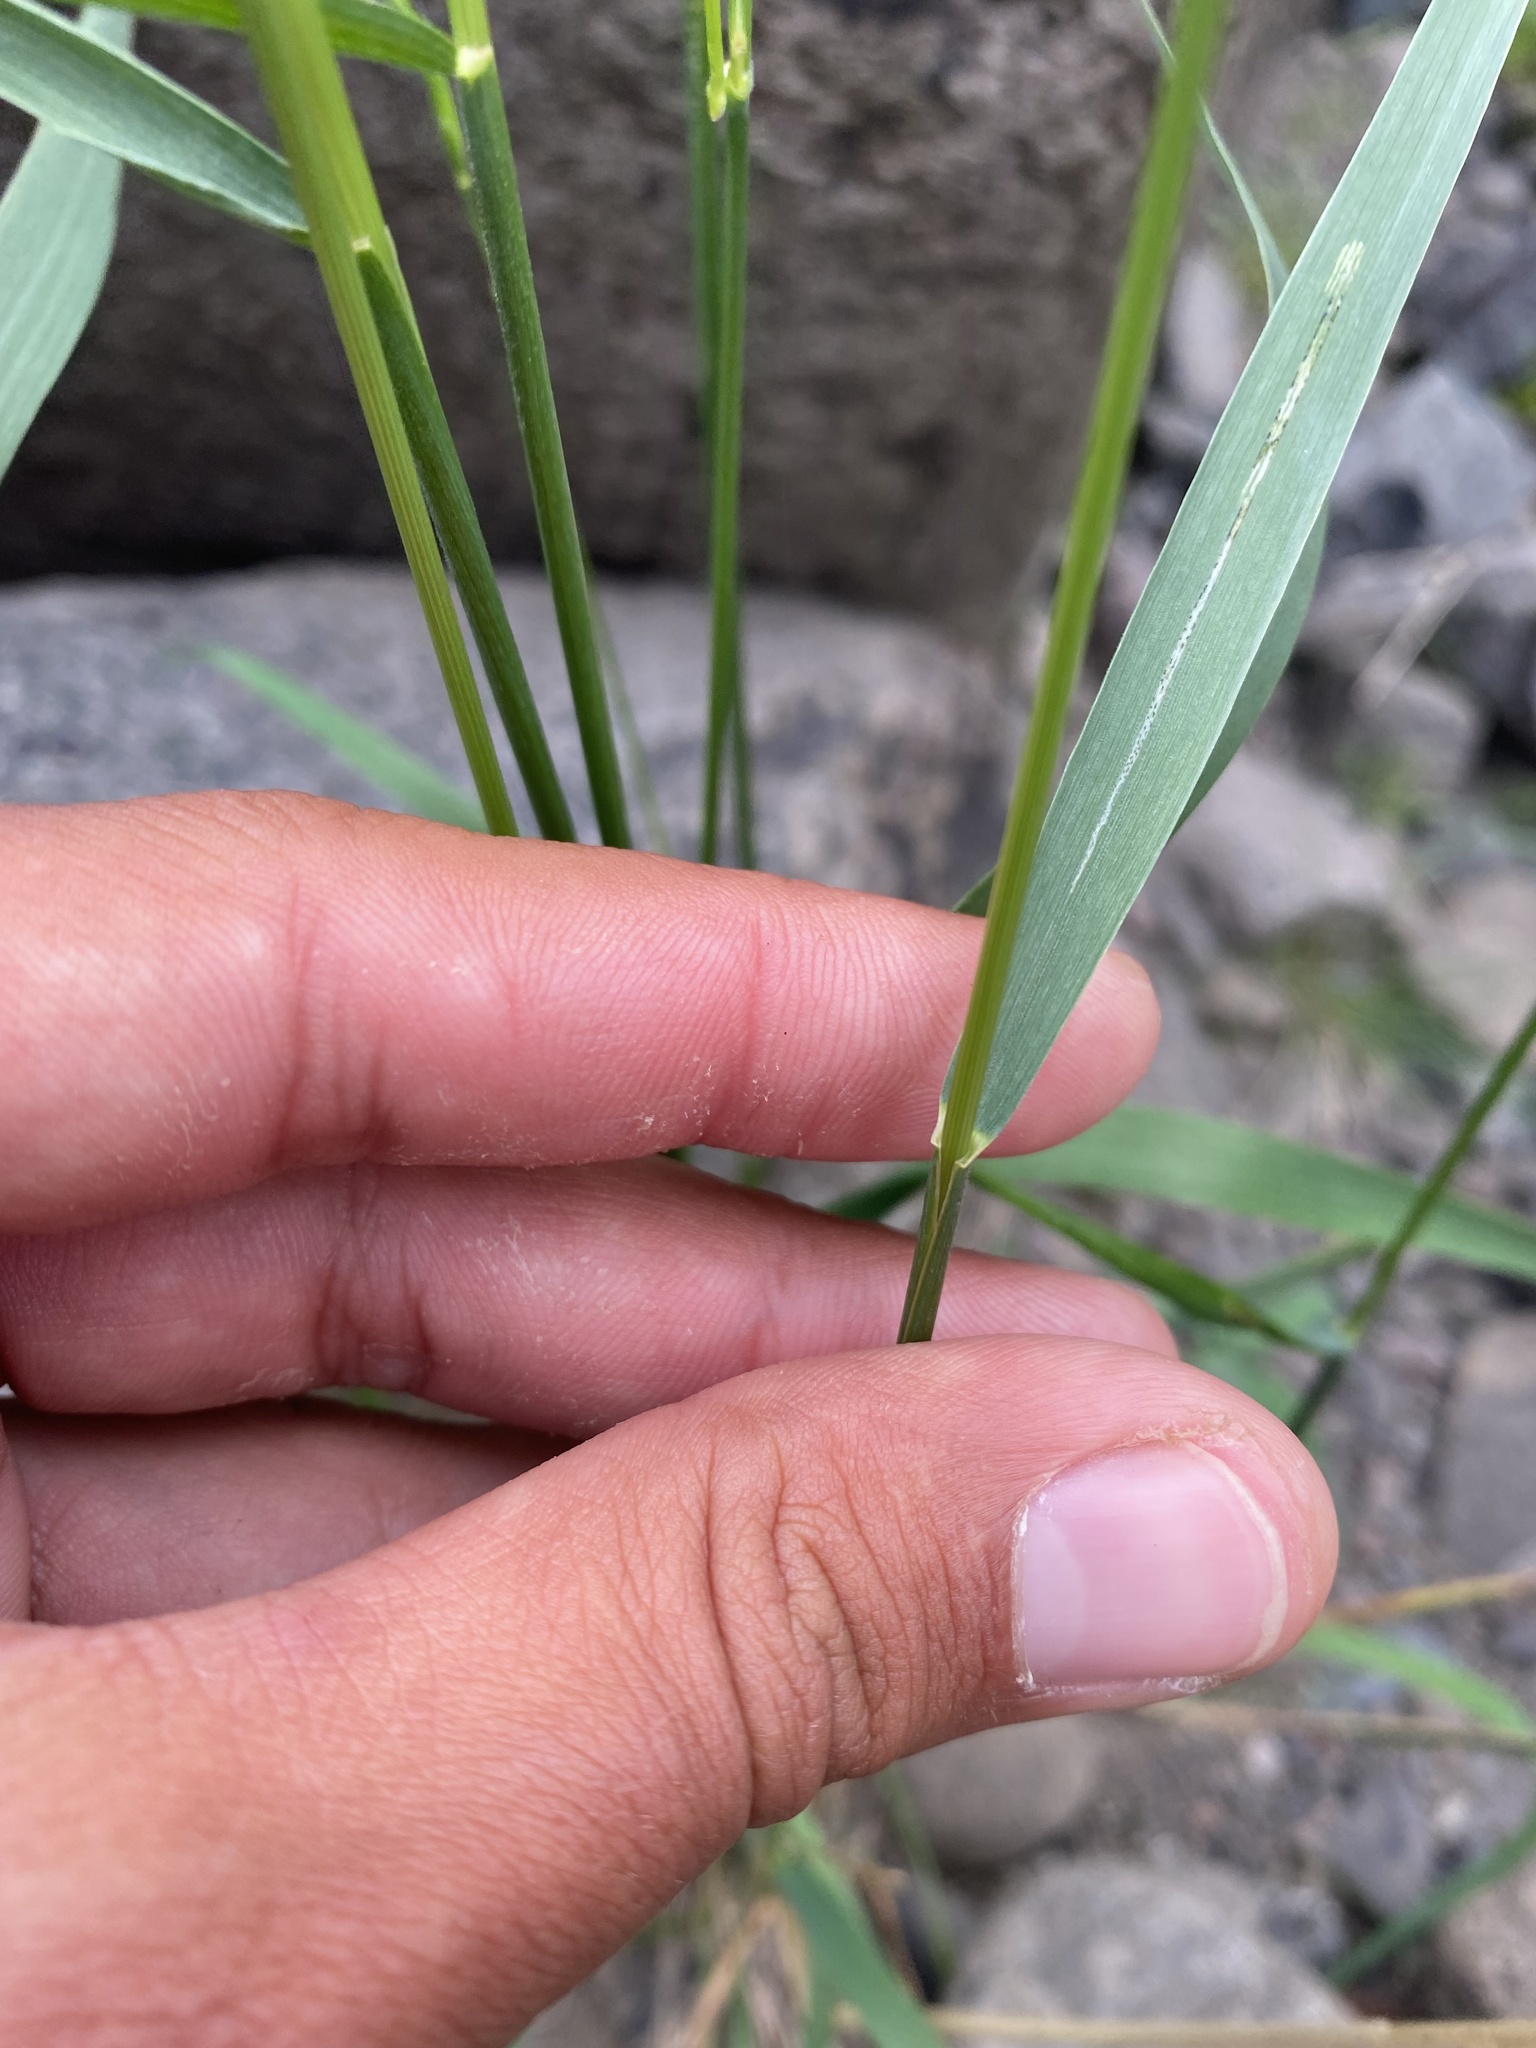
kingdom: Plantae
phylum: Tracheophyta
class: Liliopsida
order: Poales
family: Poaceae
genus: Elymus
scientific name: Elymus jacutensis
